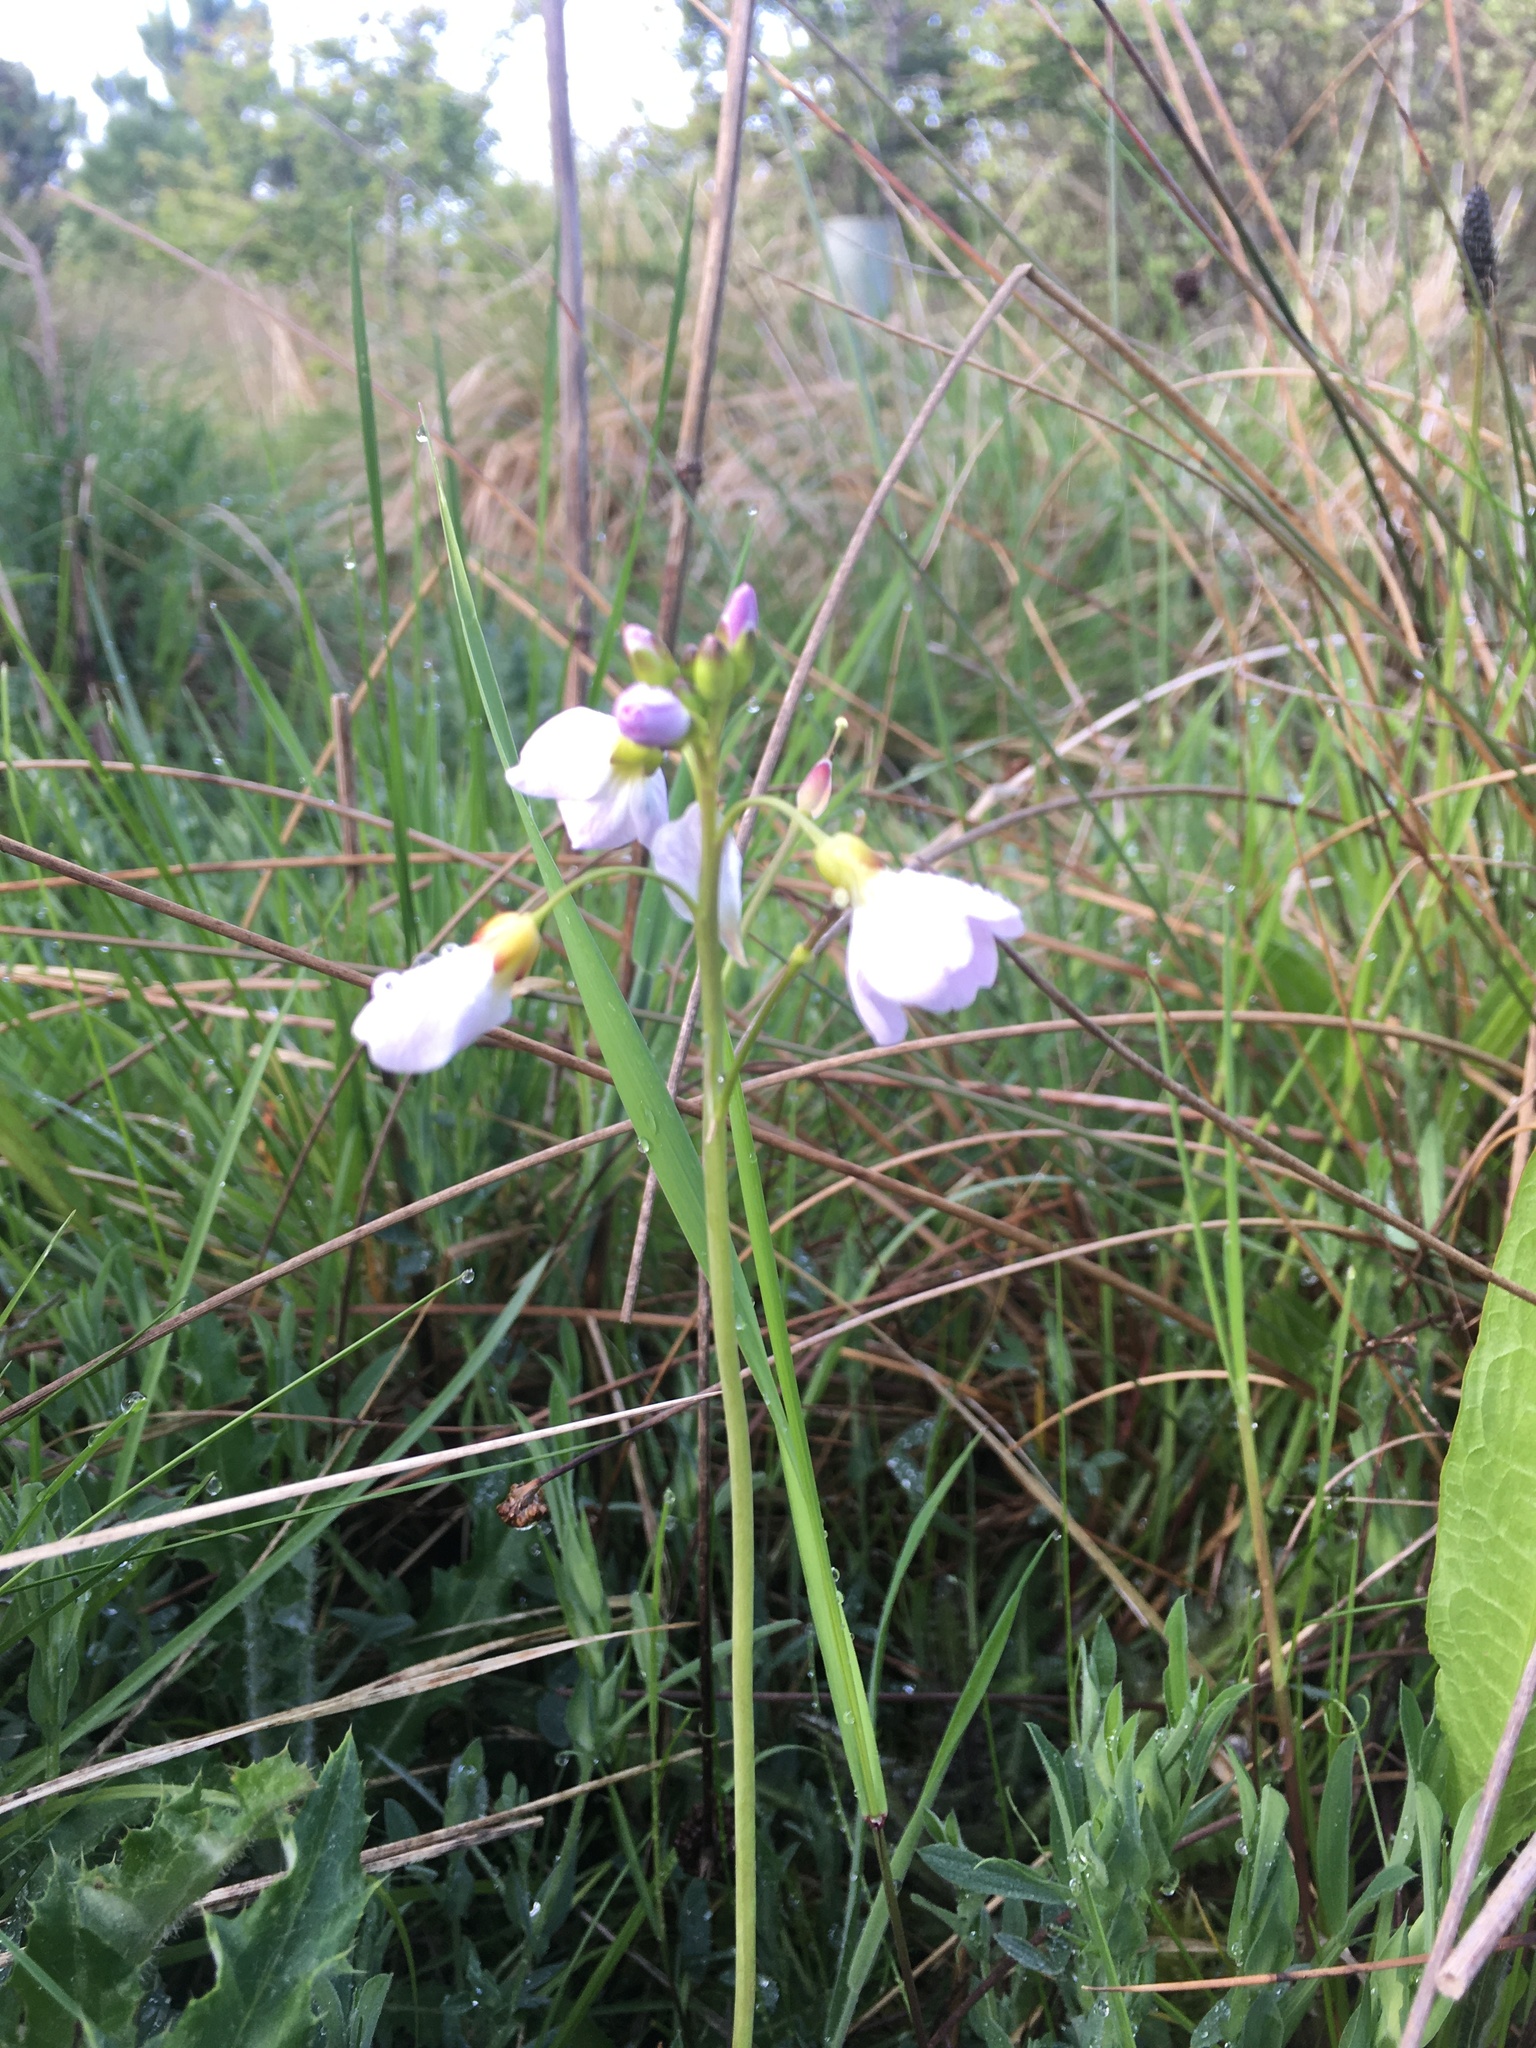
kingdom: Plantae
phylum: Tracheophyta
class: Magnoliopsida
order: Brassicales
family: Brassicaceae
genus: Cardamine
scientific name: Cardamine pratensis
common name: Cuckoo flower
